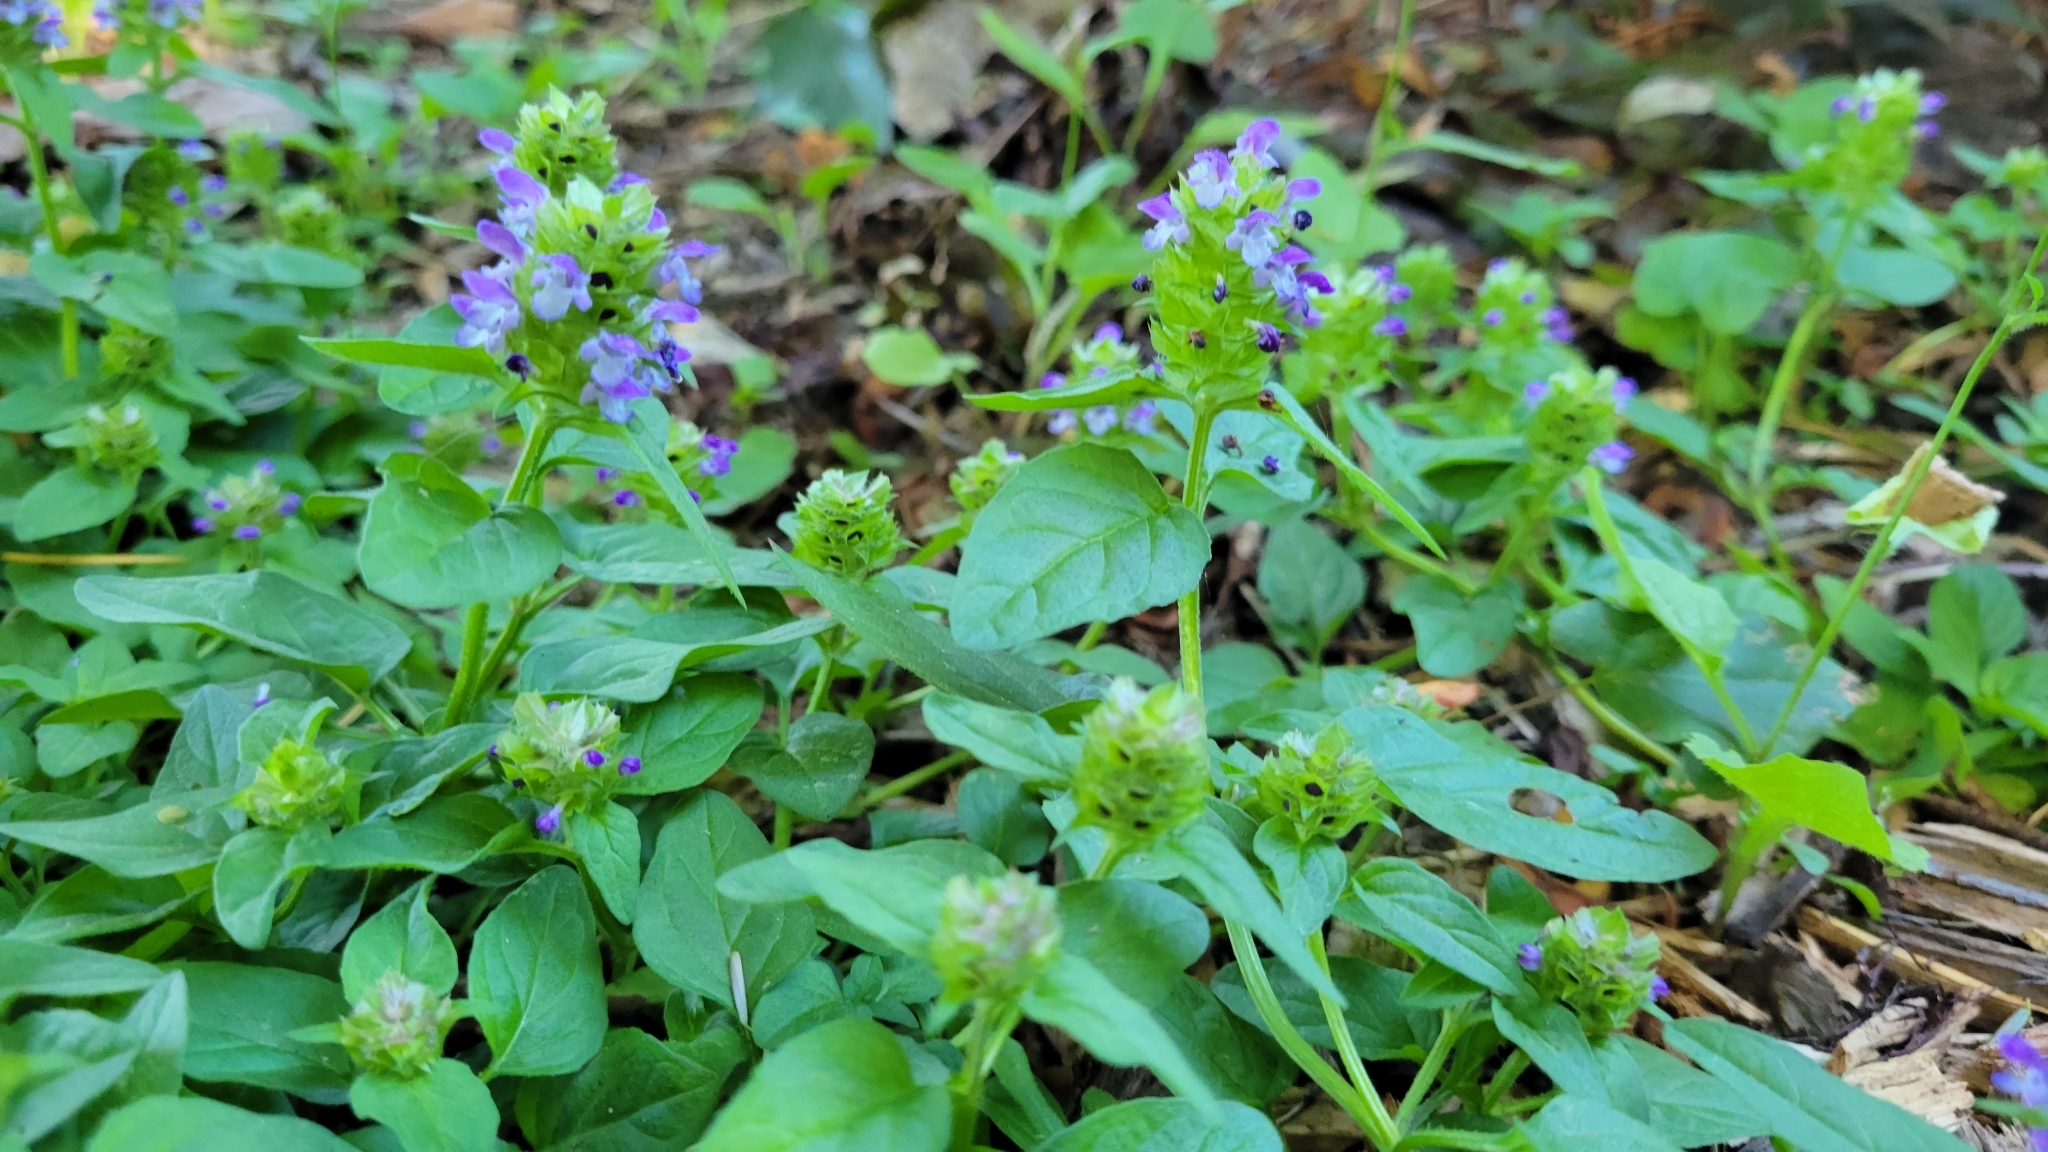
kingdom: Plantae
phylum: Tracheophyta
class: Magnoliopsida
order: Lamiales
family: Lamiaceae
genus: Prunella
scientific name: Prunella vulgaris
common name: Heal-all
